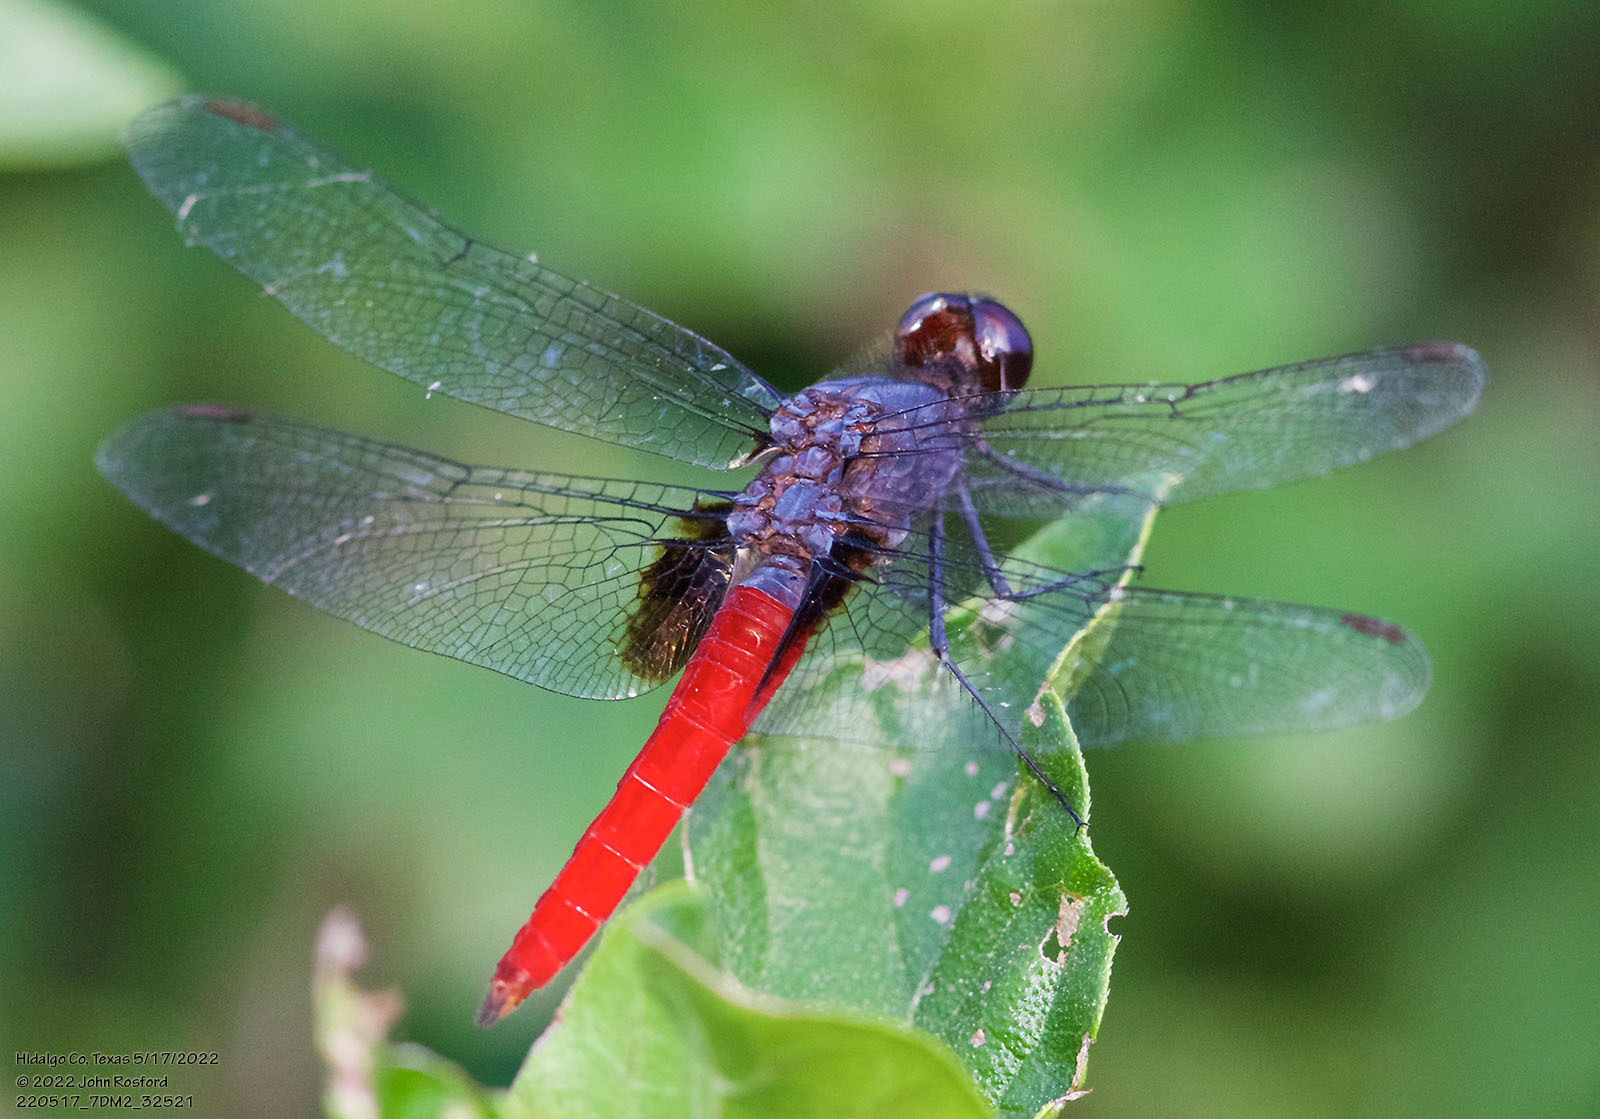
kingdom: Animalia
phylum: Arthropoda
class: Insecta
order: Odonata
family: Libellulidae
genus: Planiplax
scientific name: Planiplax sanguiniventris
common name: Mexican scarlet-tail
